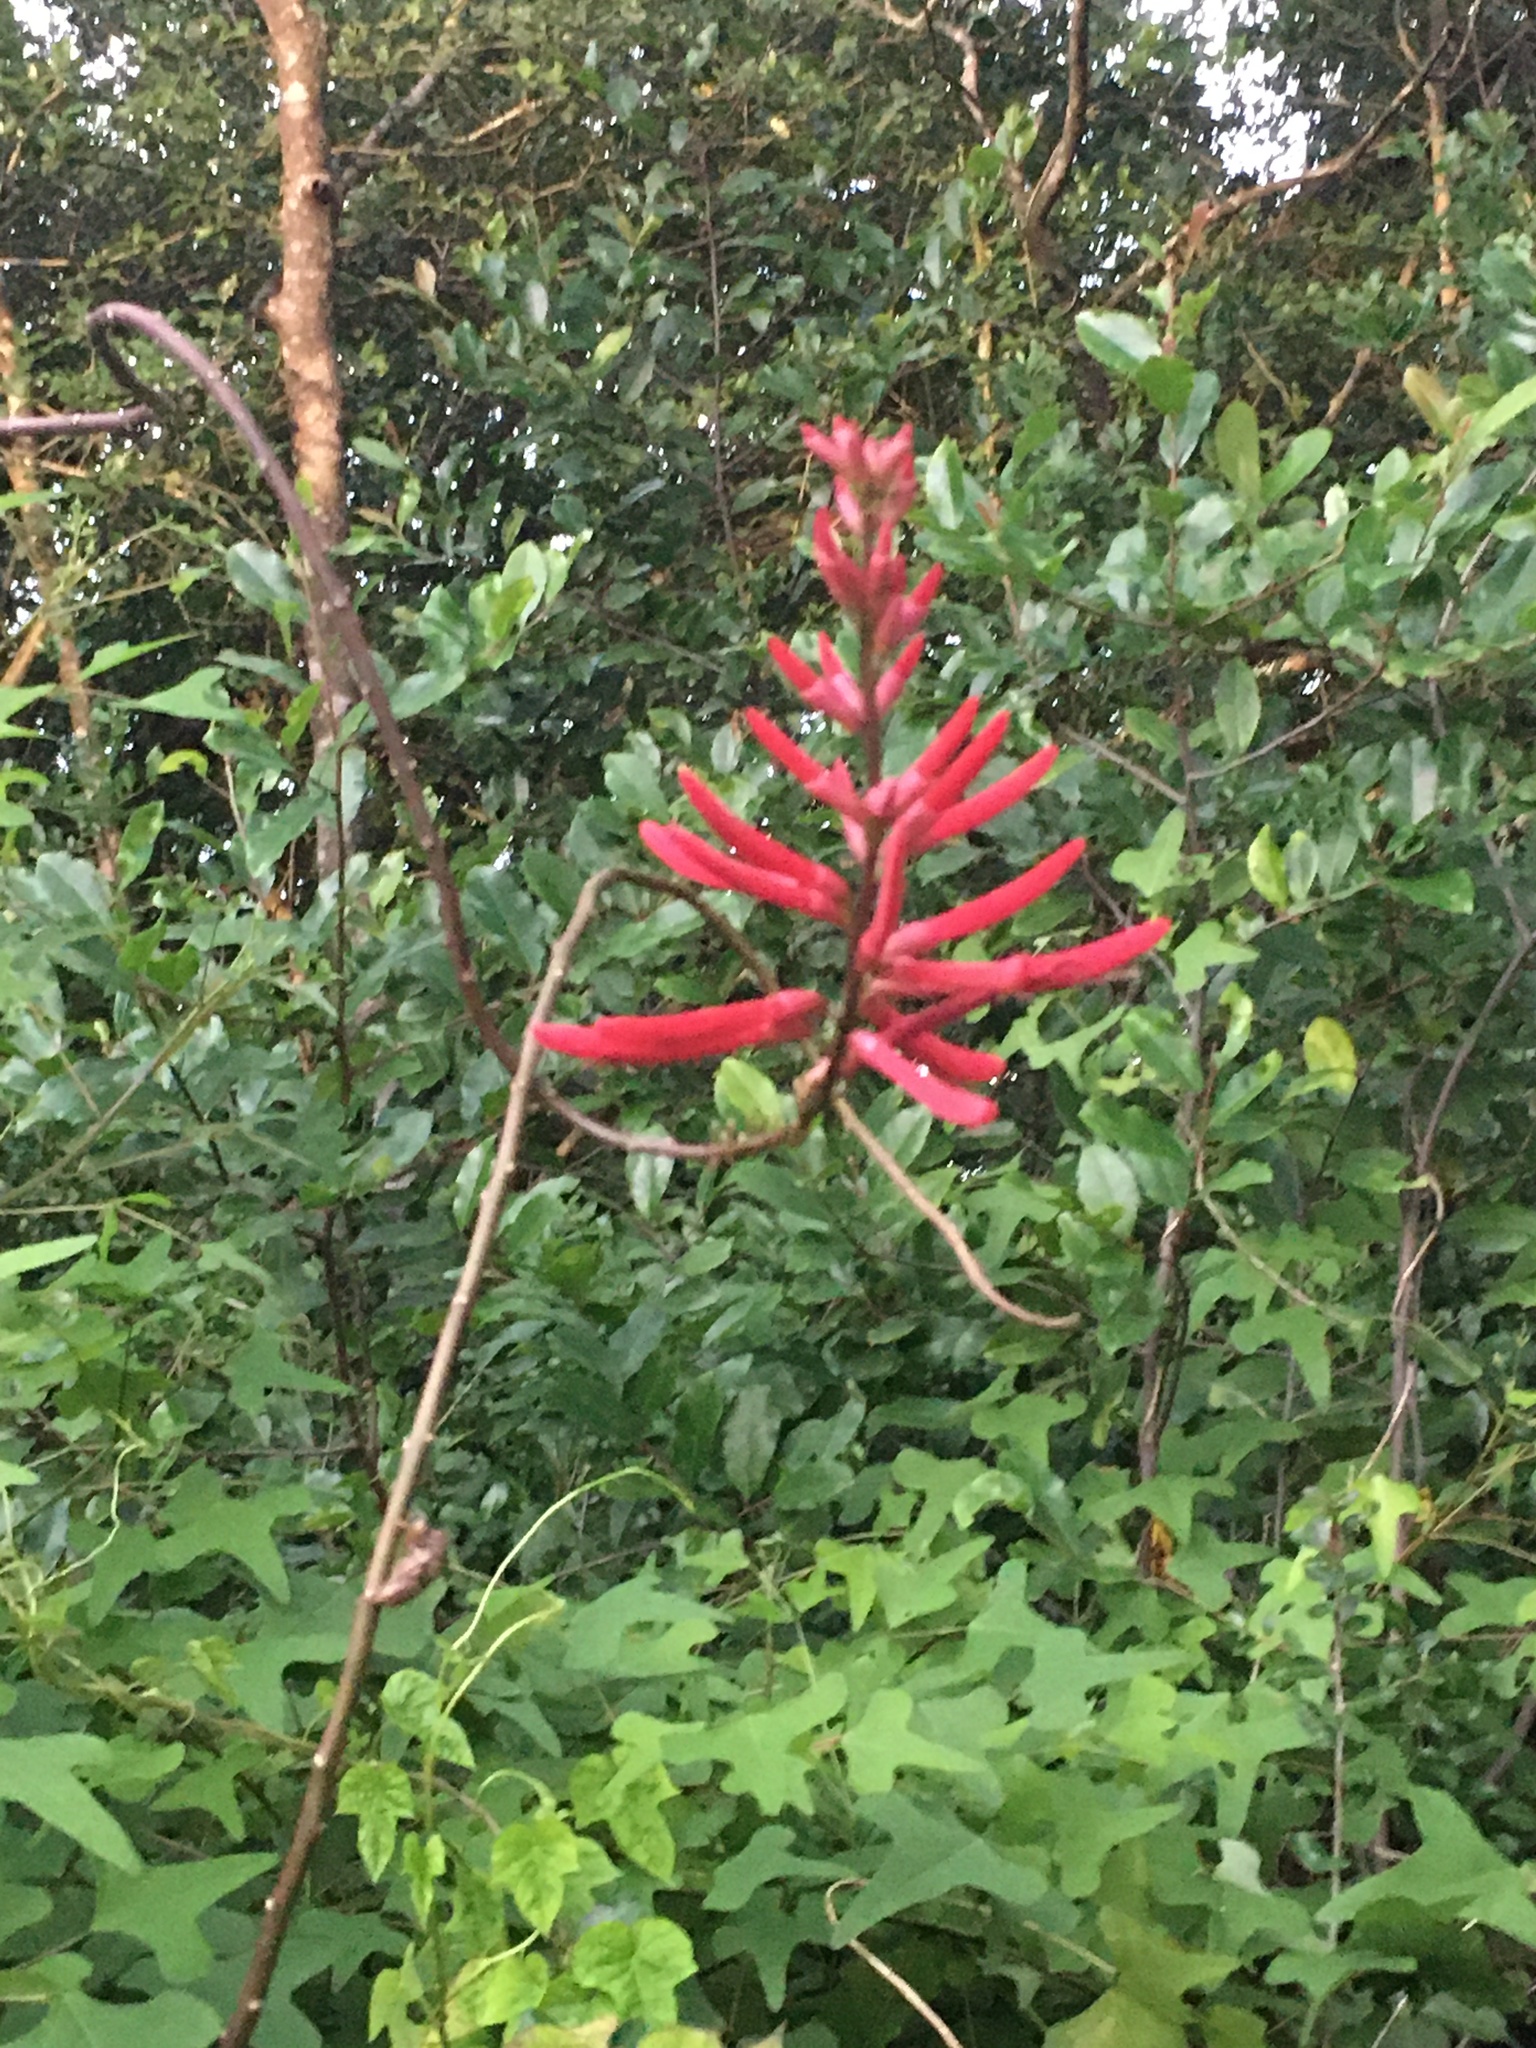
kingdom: Plantae
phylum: Tracheophyta
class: Magnoliopsida
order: Fabales
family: Fabaceae
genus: Erythrina
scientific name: Erythrina herbacea
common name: Coral-bean
